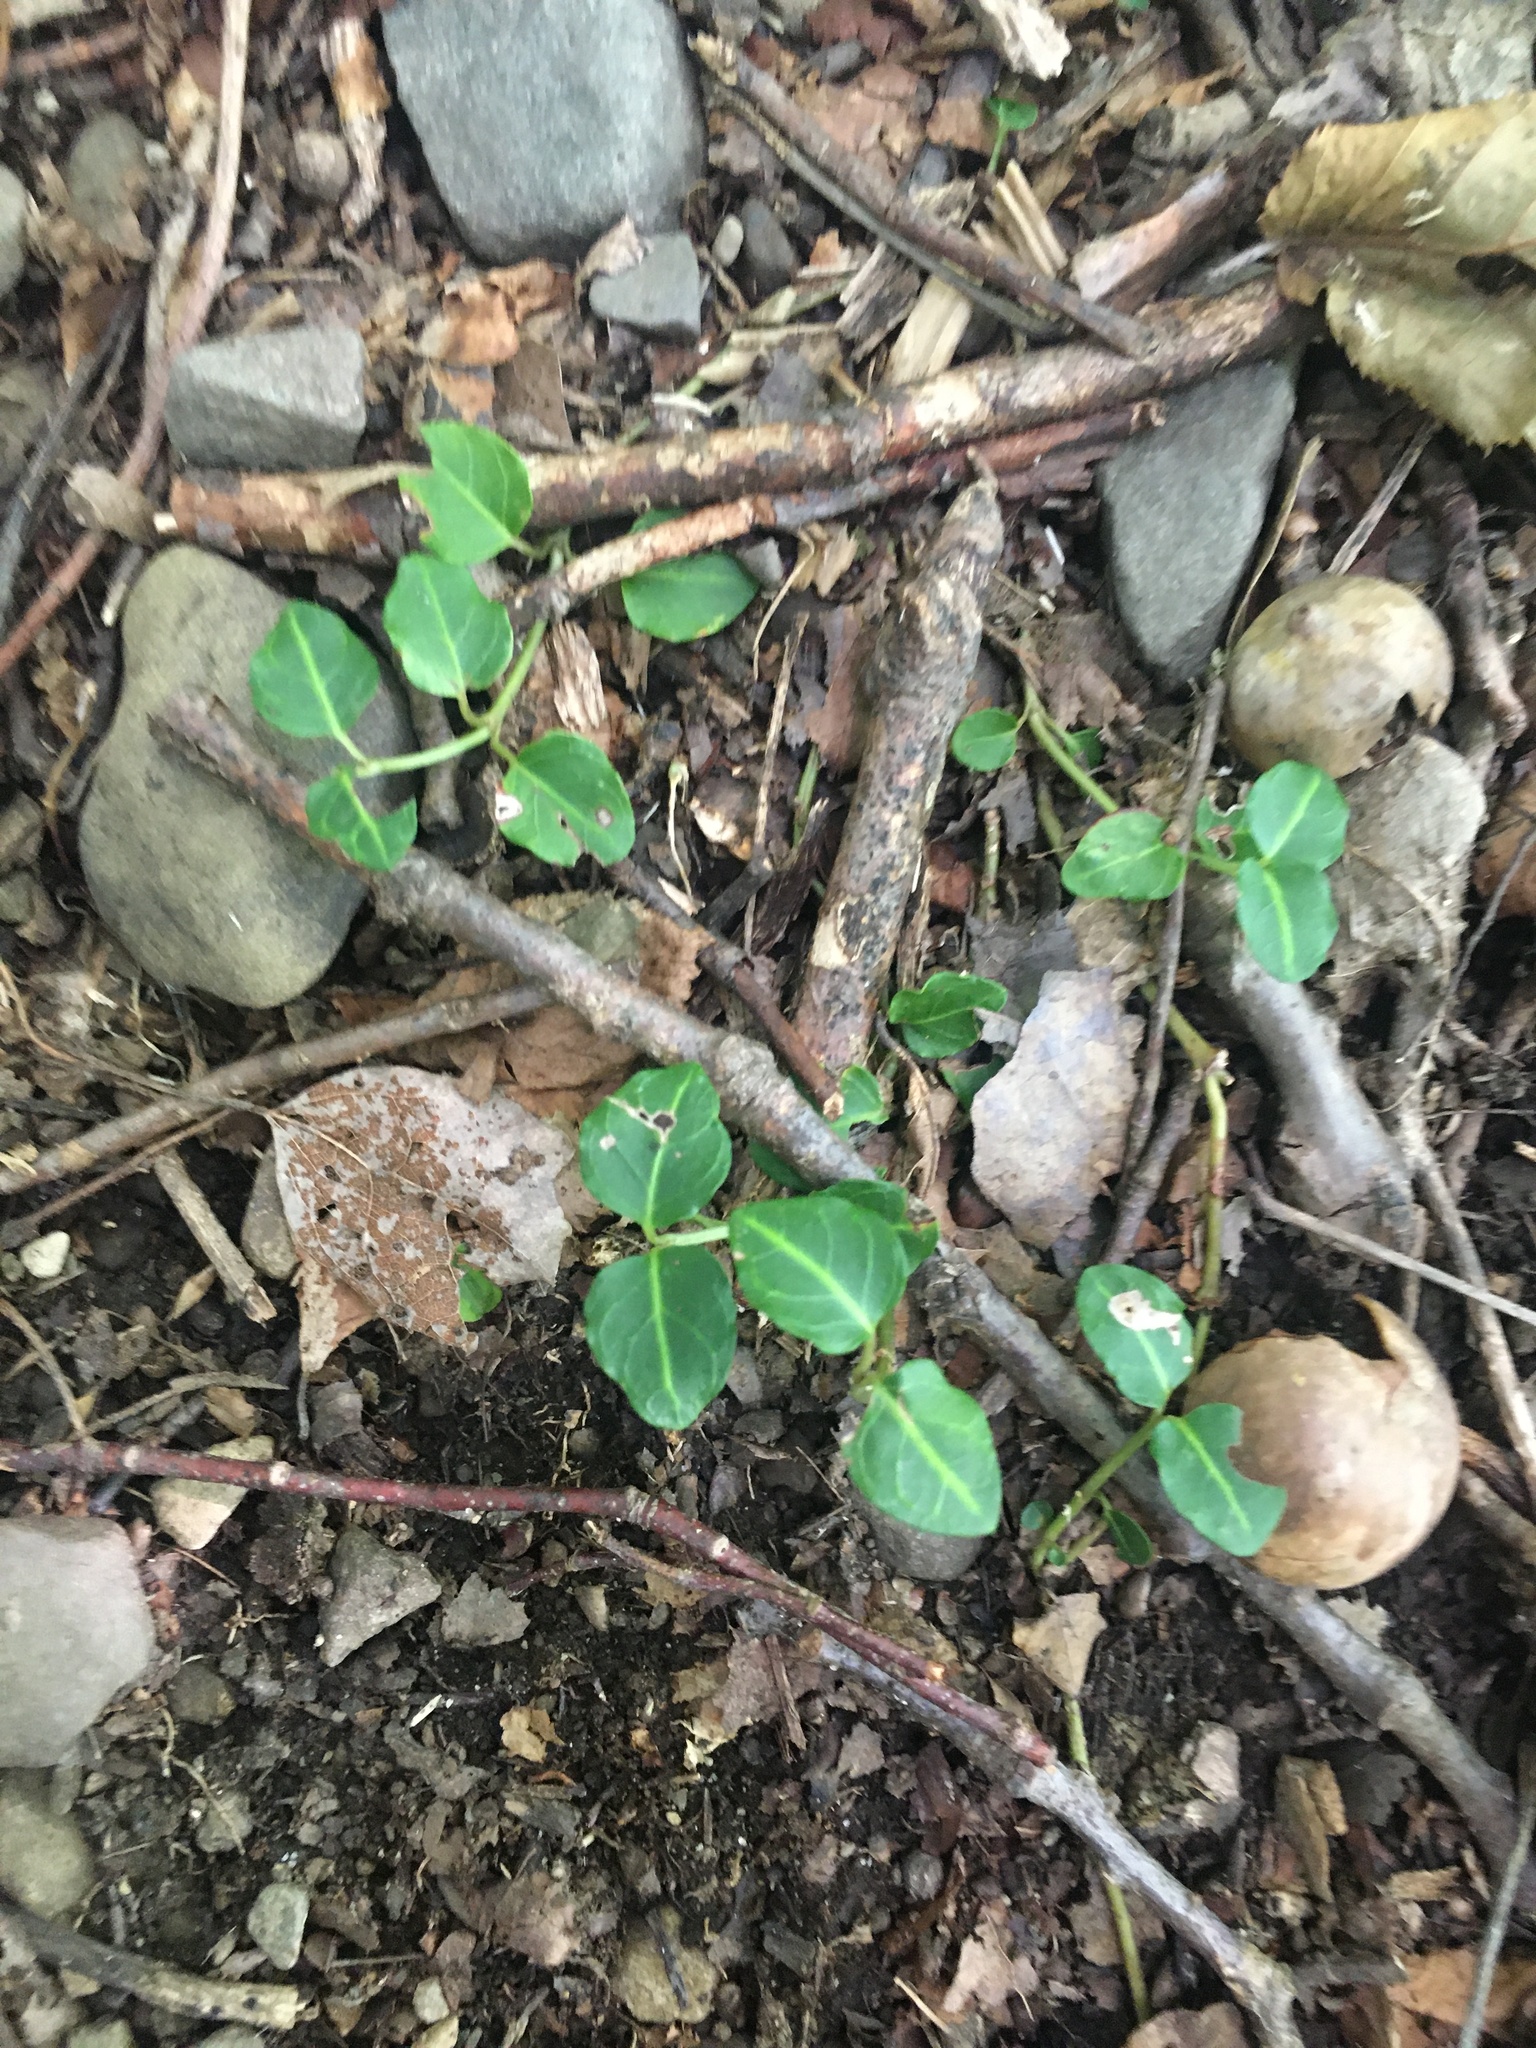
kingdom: Plantae
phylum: Tracheophyta
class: Magnoliopsida
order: Gentianales
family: Rubiaceae
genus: Mitchella
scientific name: Mitchella repens
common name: Partridge-berry
